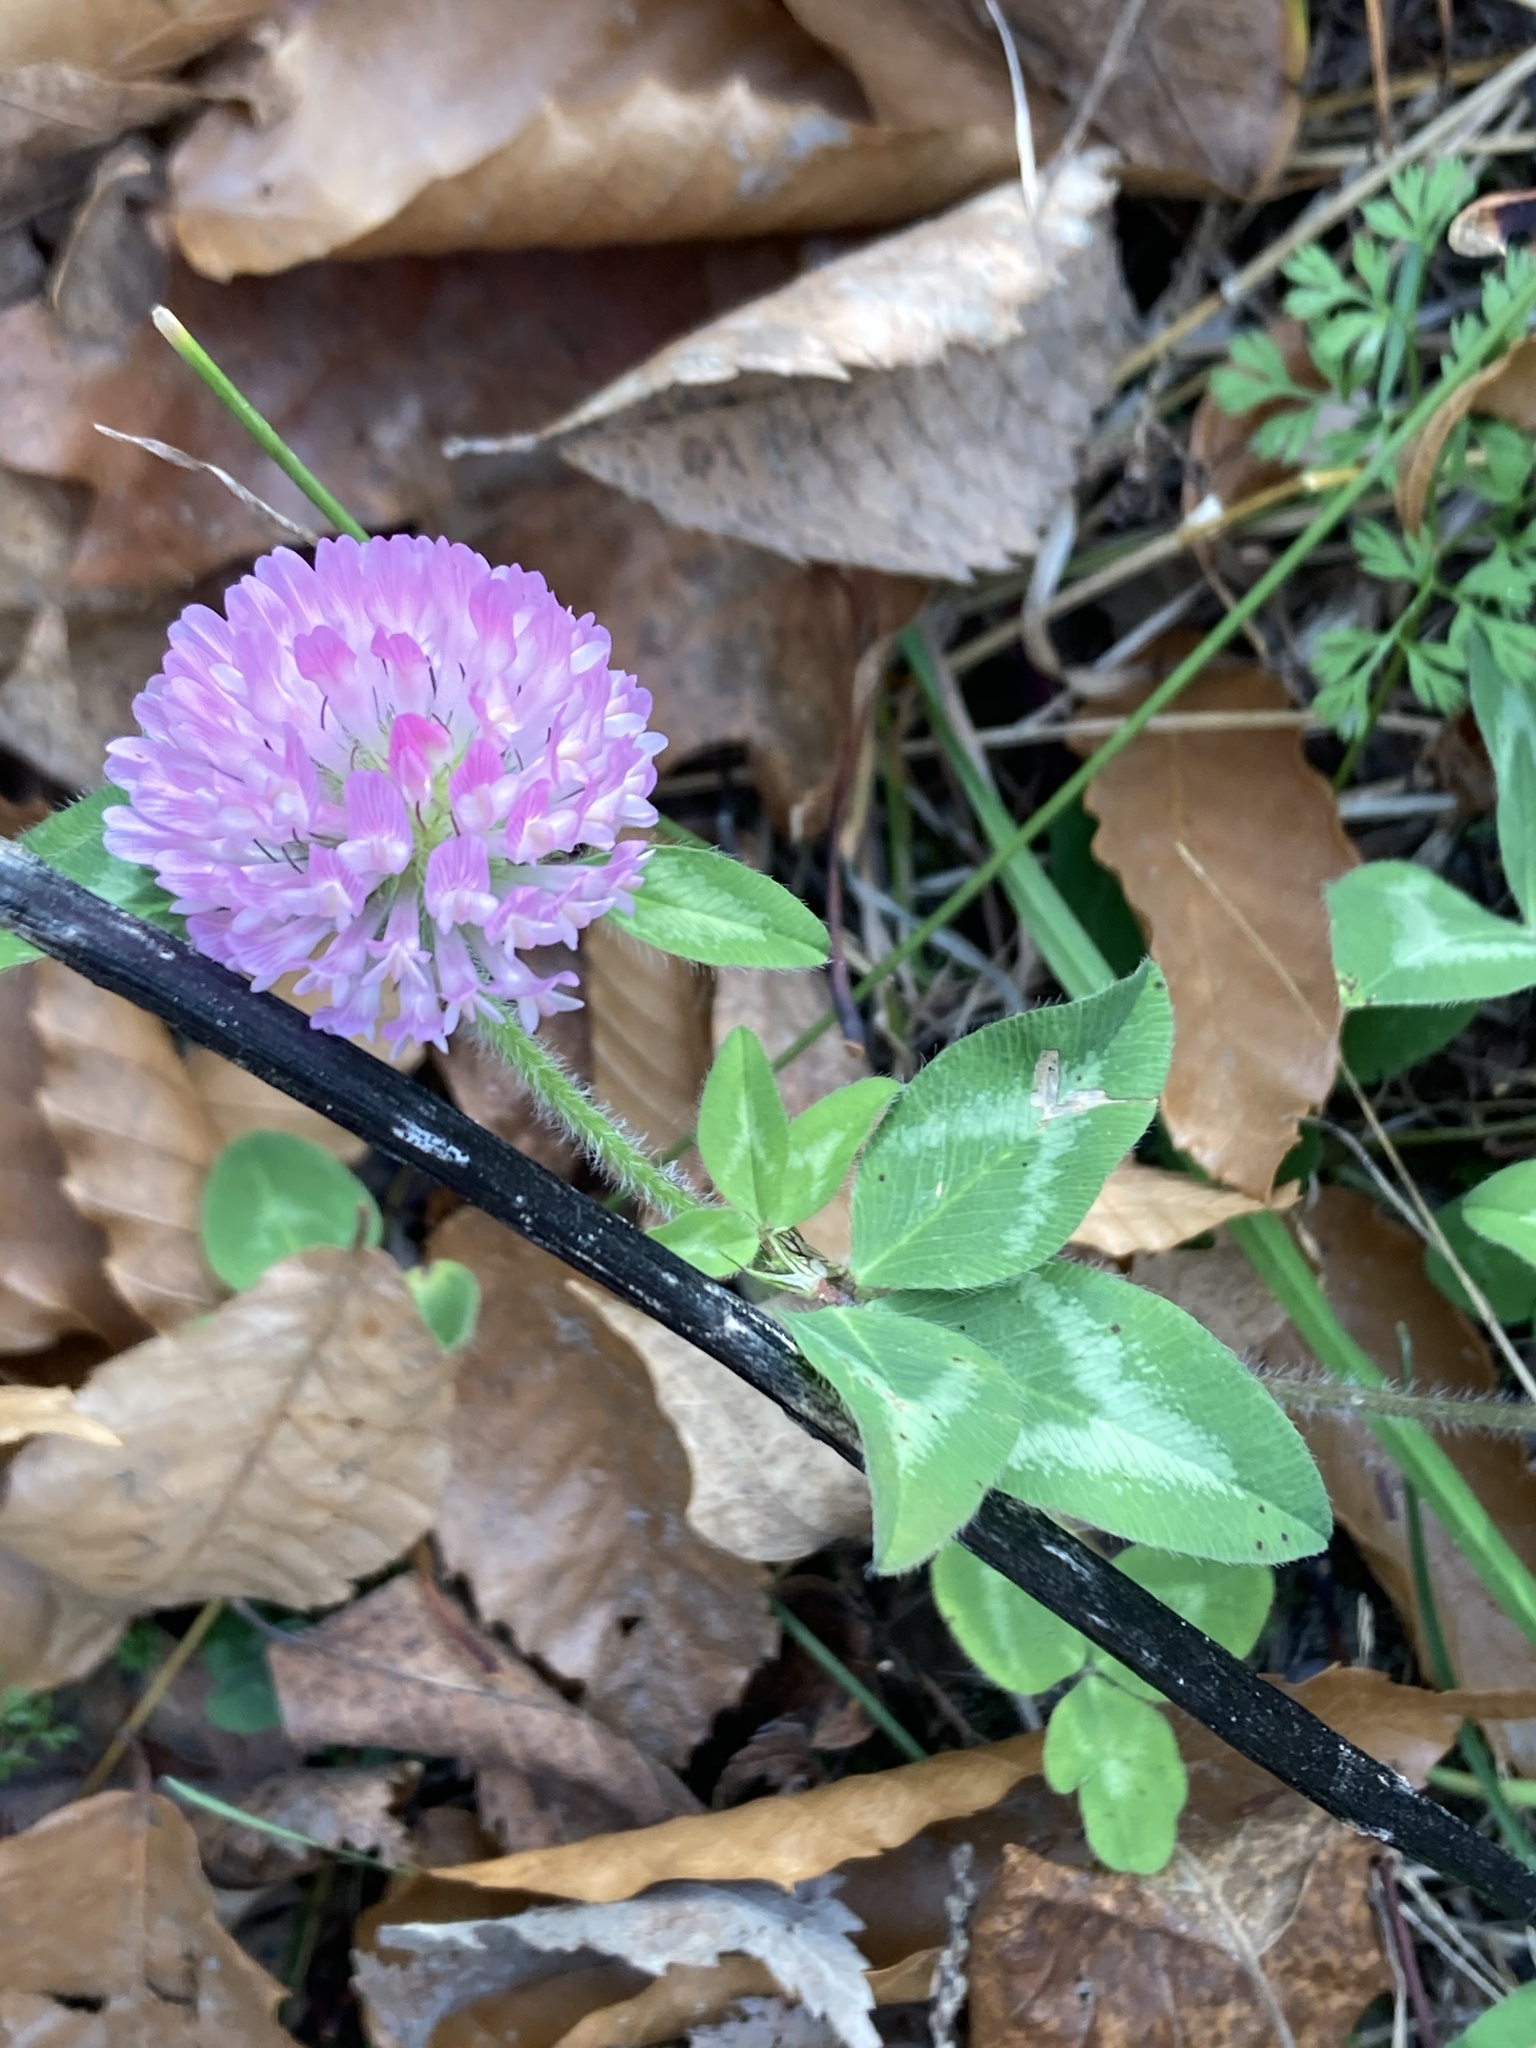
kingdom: Plantae
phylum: Tracheophyta
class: Magnoliopsida
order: Fabales
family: Fabaceae
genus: Trifolium
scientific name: Trifolium pratense
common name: Red clover
